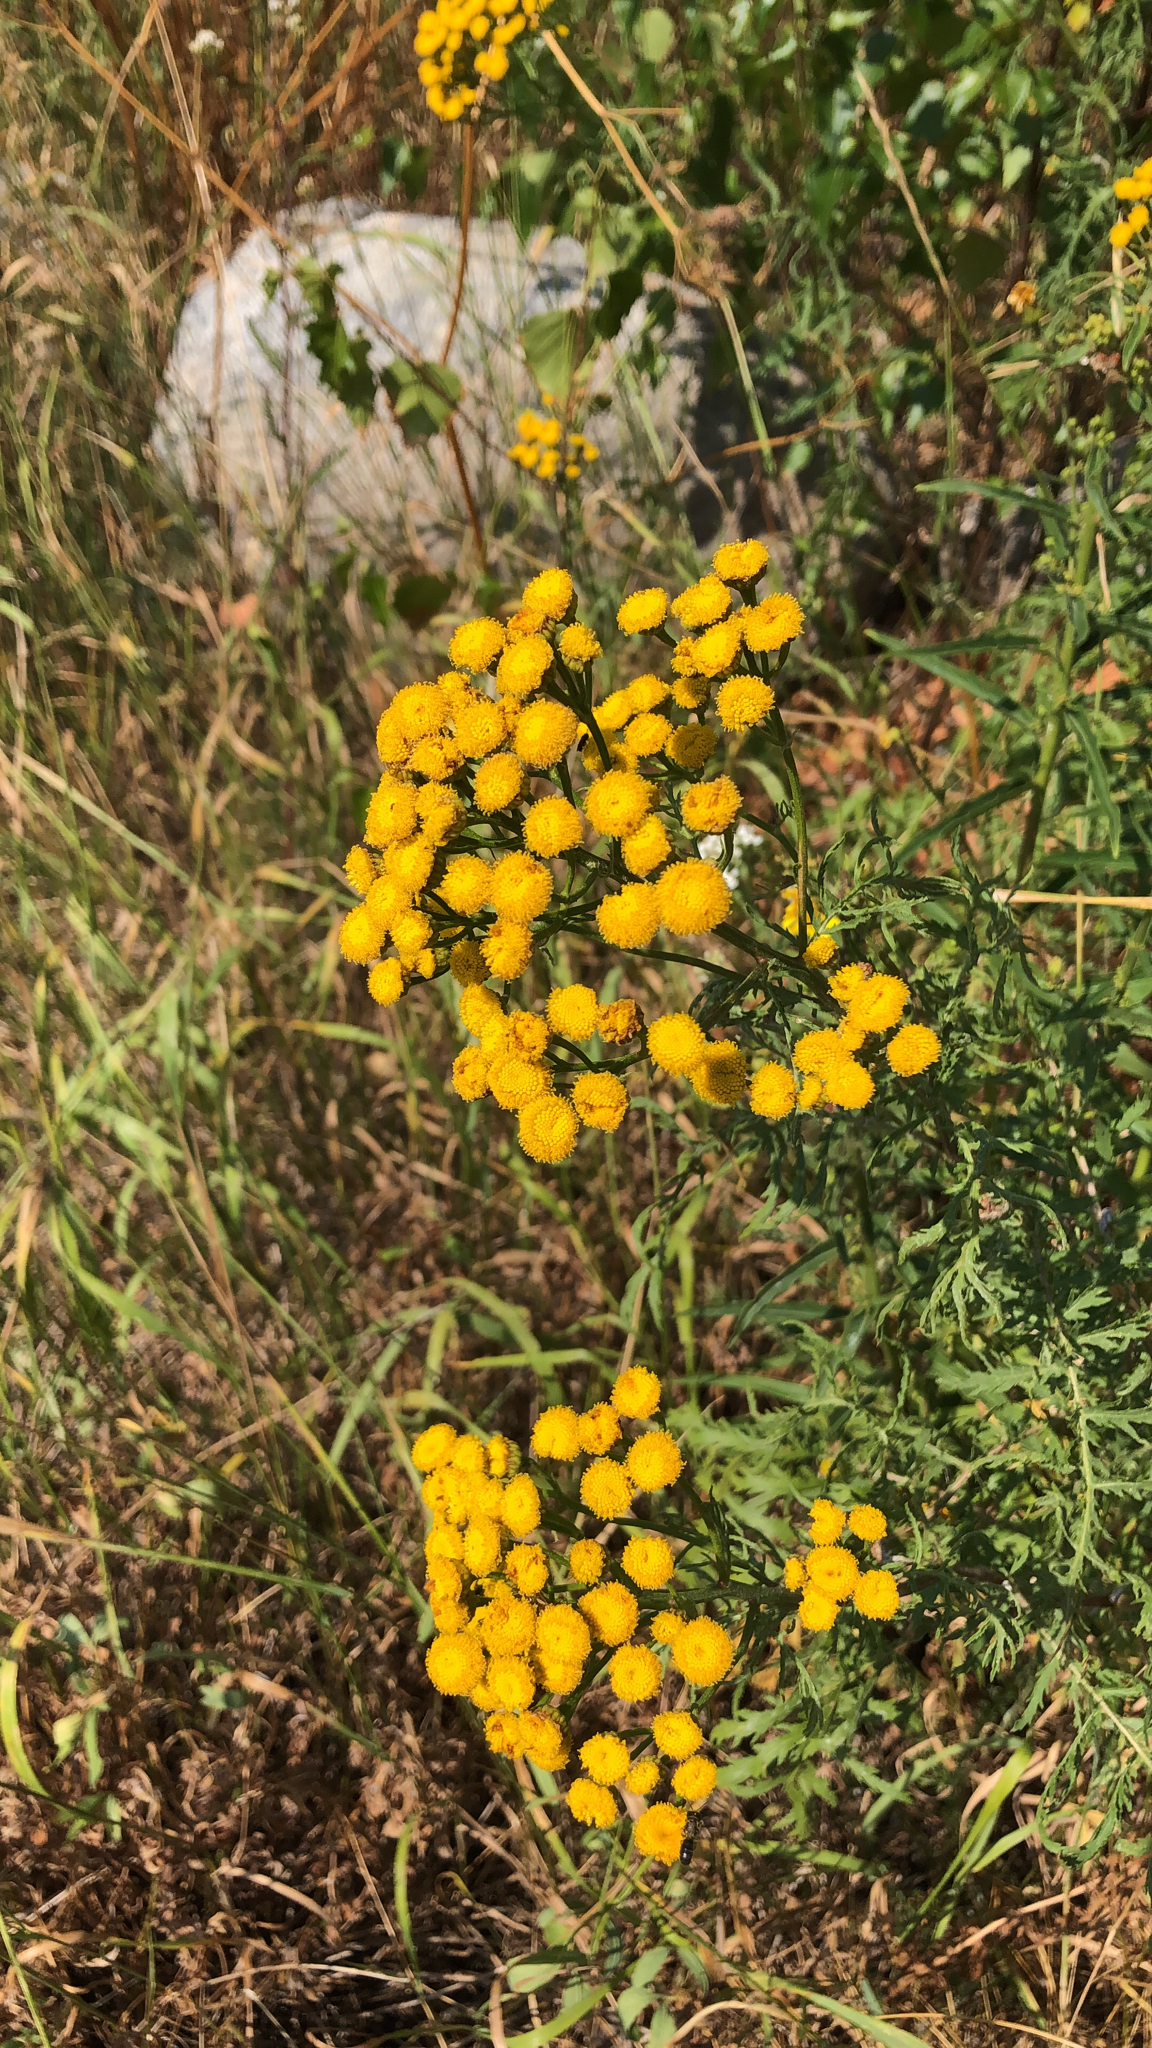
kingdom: Plantae
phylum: Tracheophyta
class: Magnoliopsida
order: Asterales
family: Asteraceae
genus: Tanacetum
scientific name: Tanacetum vulgare
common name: Common tansy
